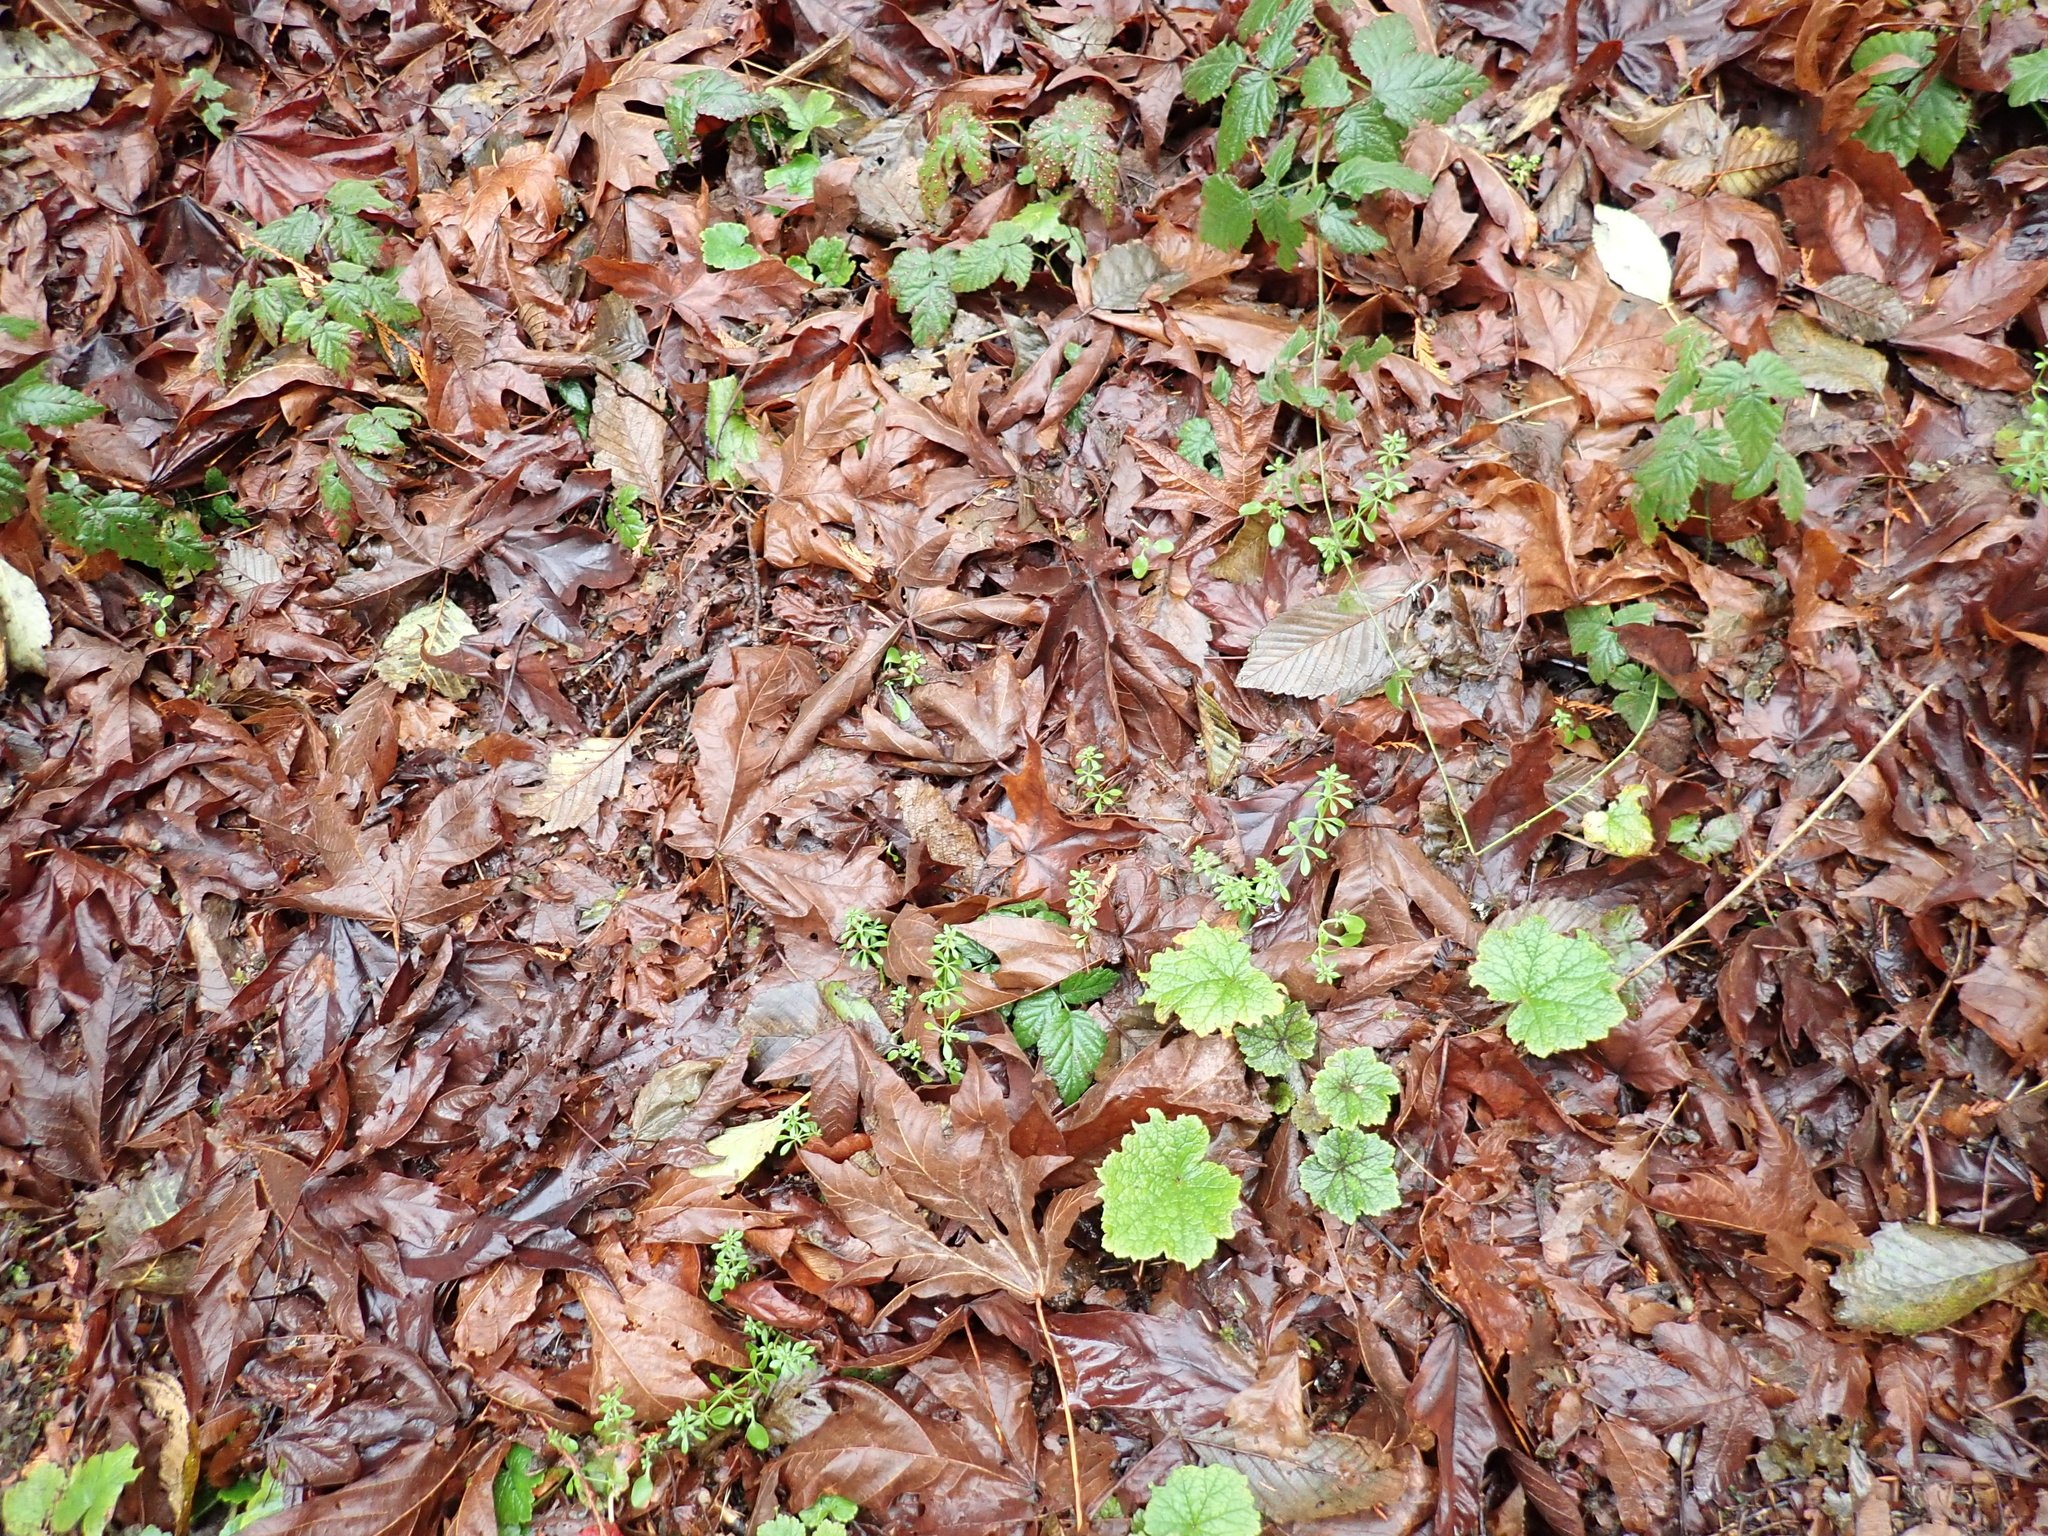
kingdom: Plantae
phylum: Tracheophyta
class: Magnoliopsida
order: Gentianales
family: Rubiaceae
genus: Galium
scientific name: Galium aparine
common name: Cleavers
